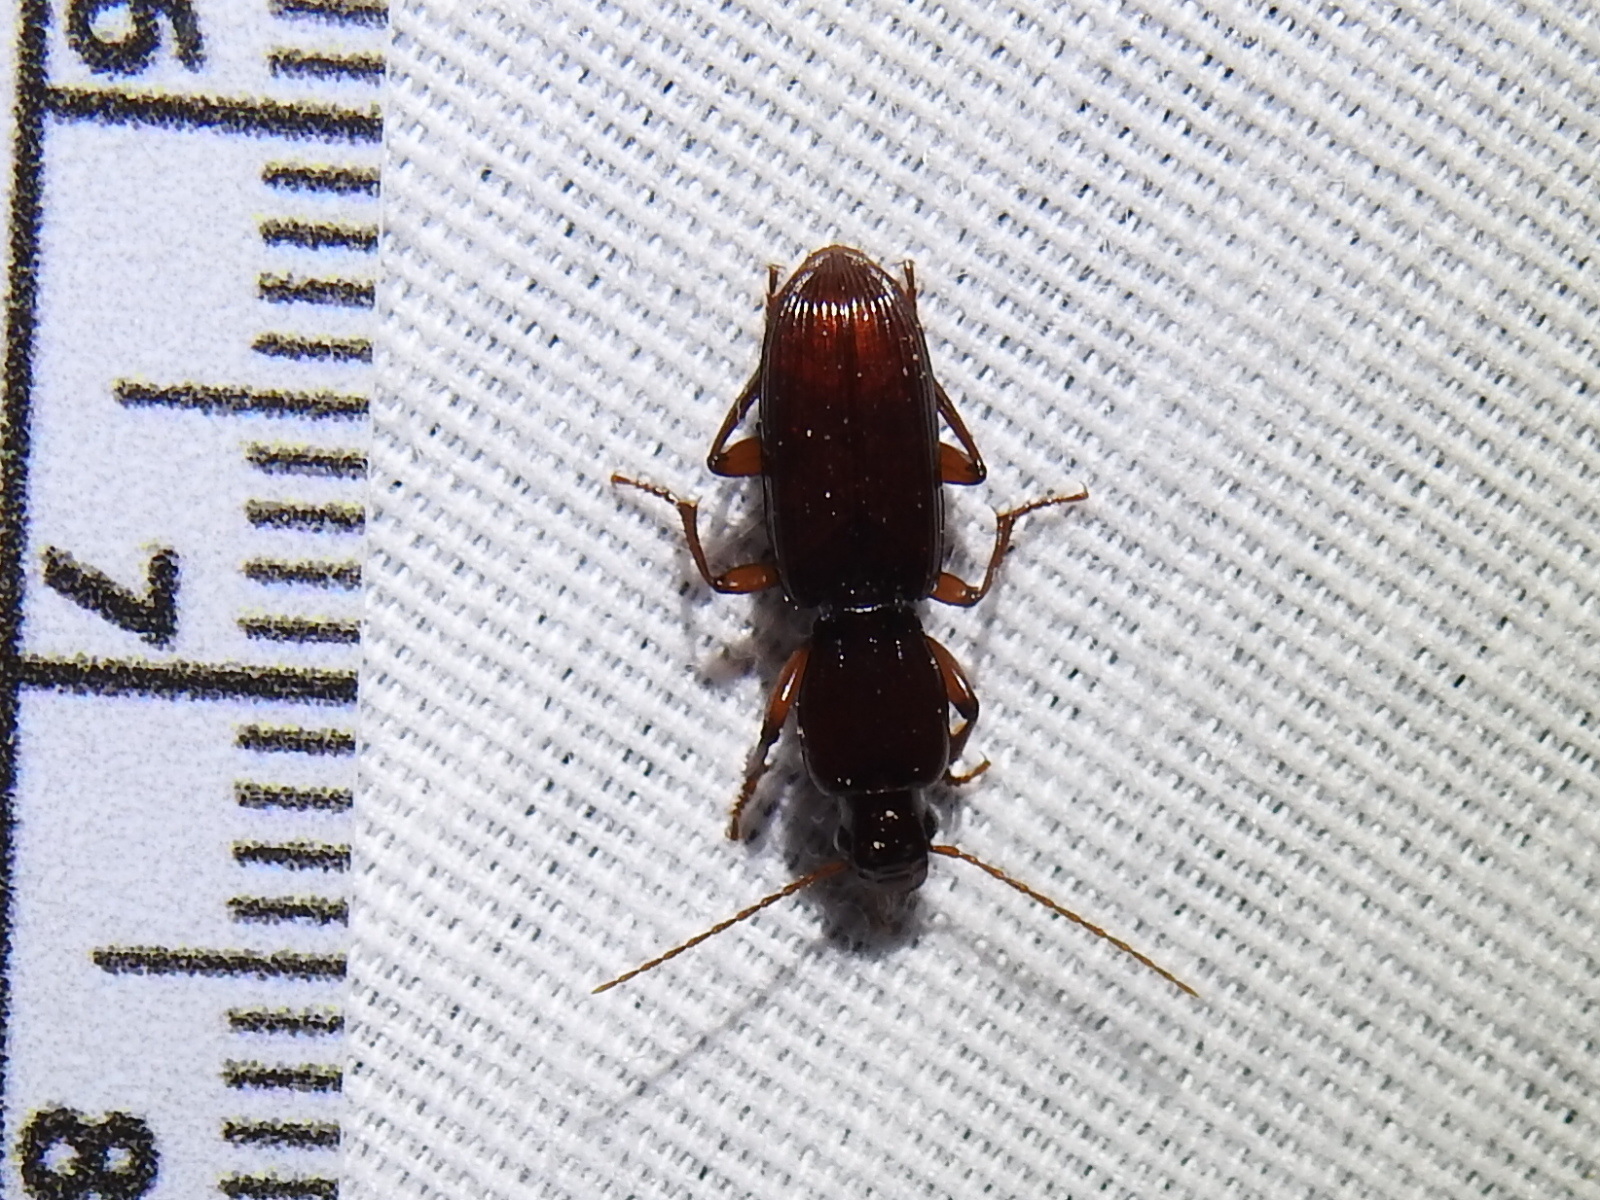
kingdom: Animalia
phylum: Arthropoda
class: Insecta
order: Coleoptera
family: Carabidae
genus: Stenomorphus
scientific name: Stenomorphus californicus
